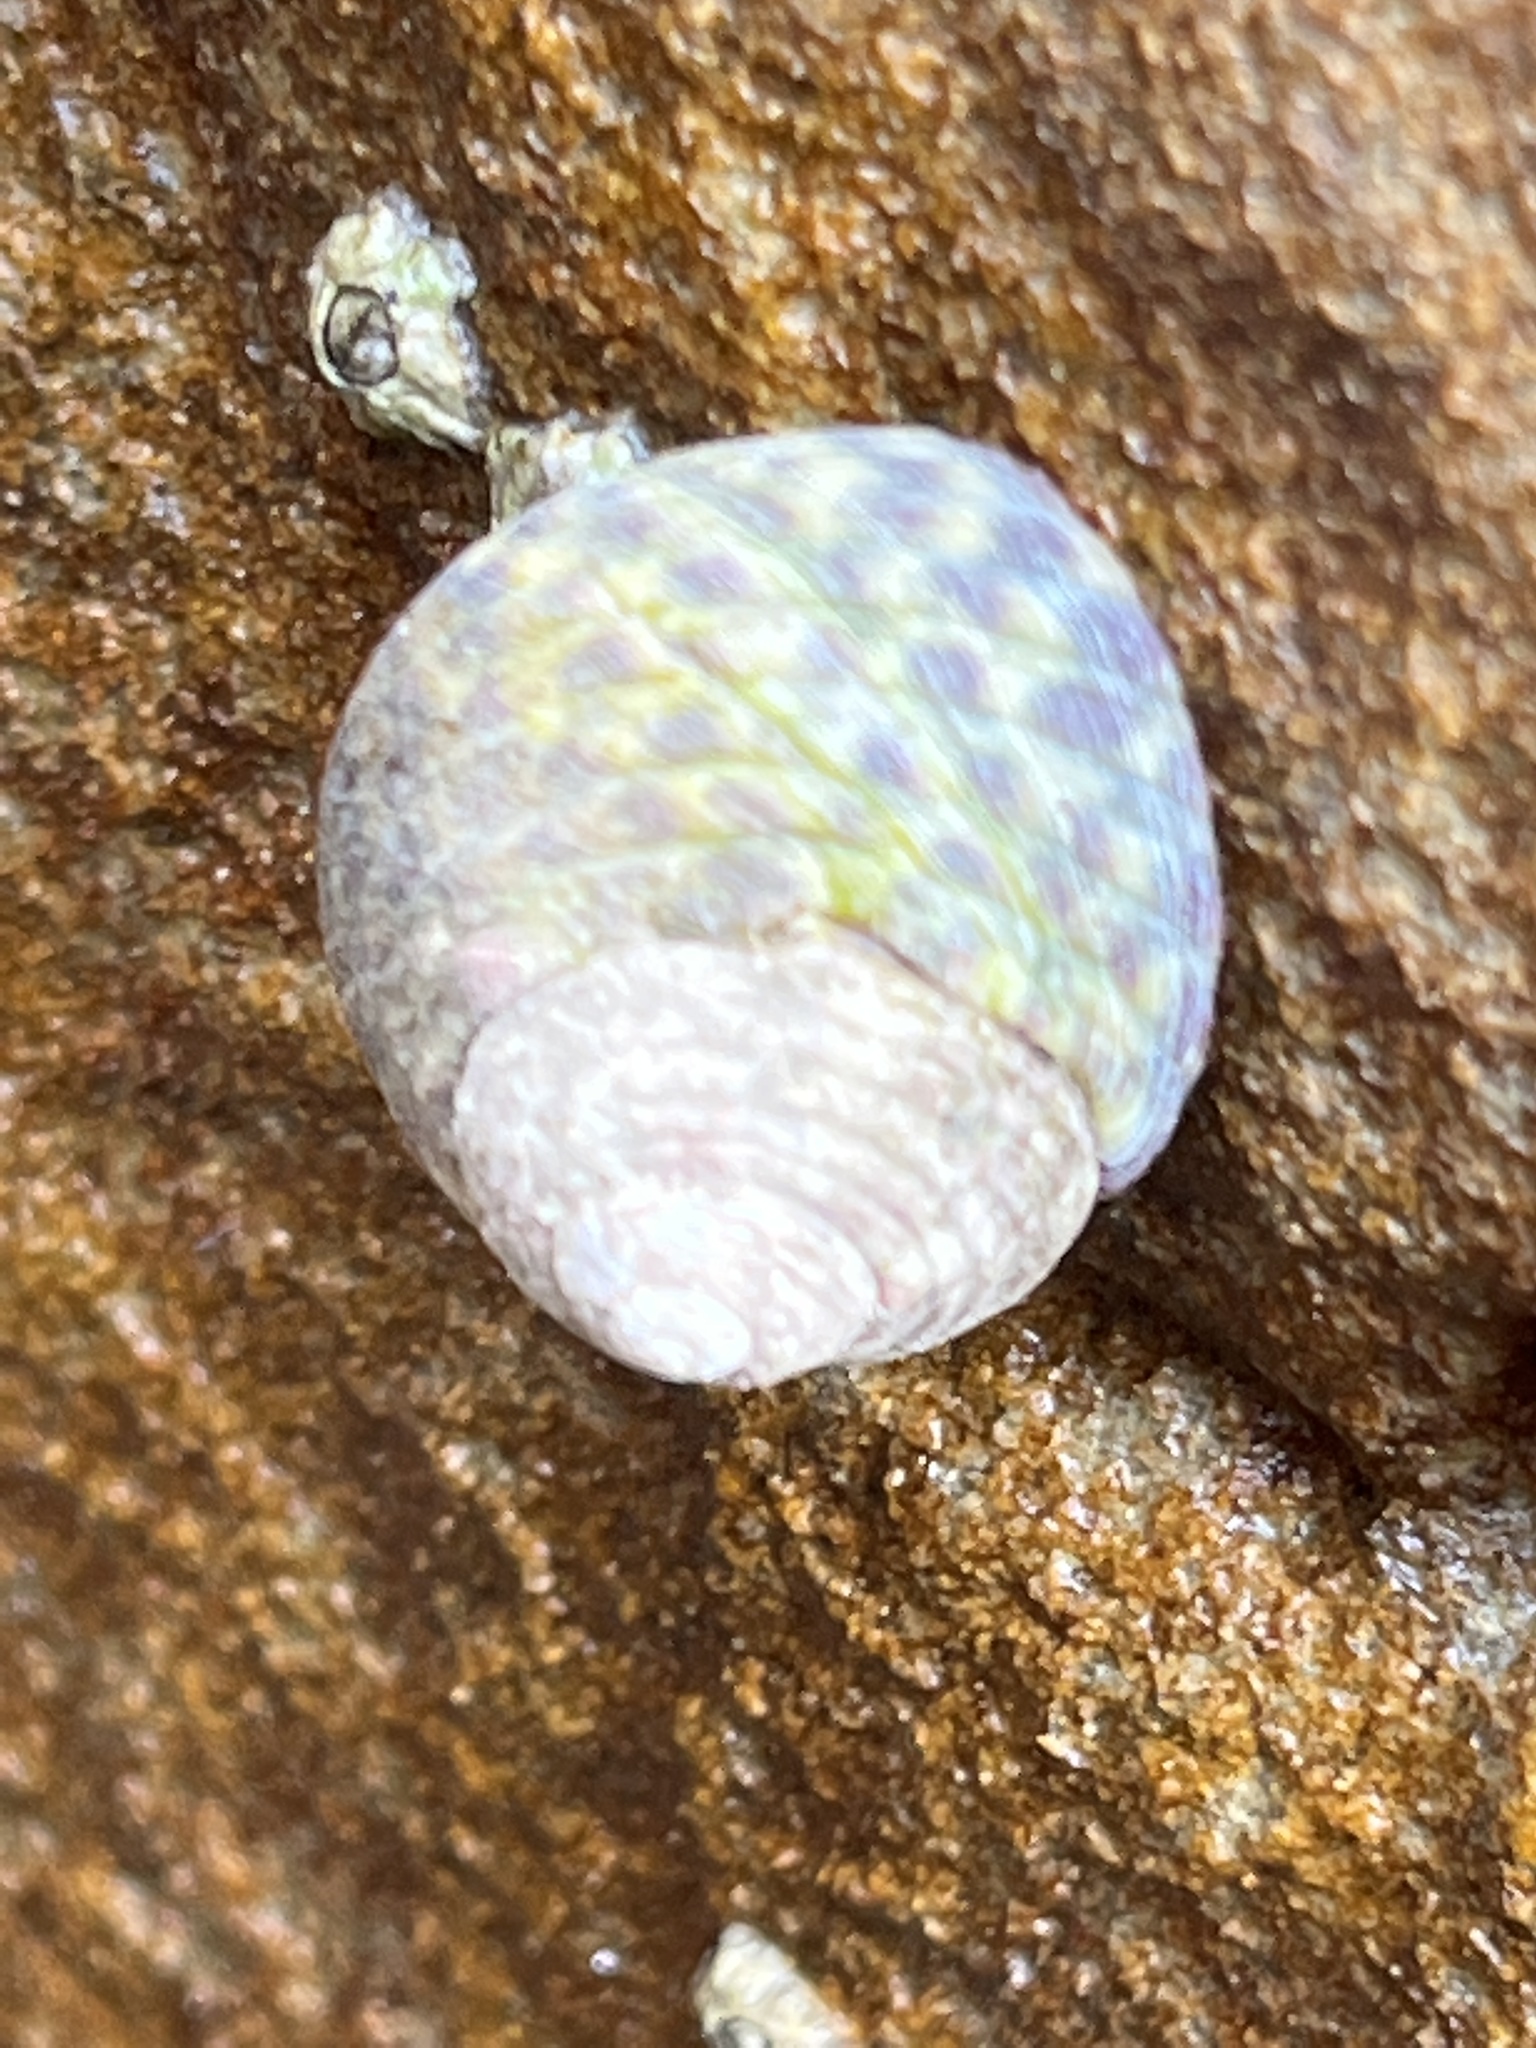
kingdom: Animalia
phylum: Mollusca
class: Gastropoda
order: Trochida
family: Trochidae
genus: Phorcus
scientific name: Phorcus turbinatus
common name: Turbinate monodont
